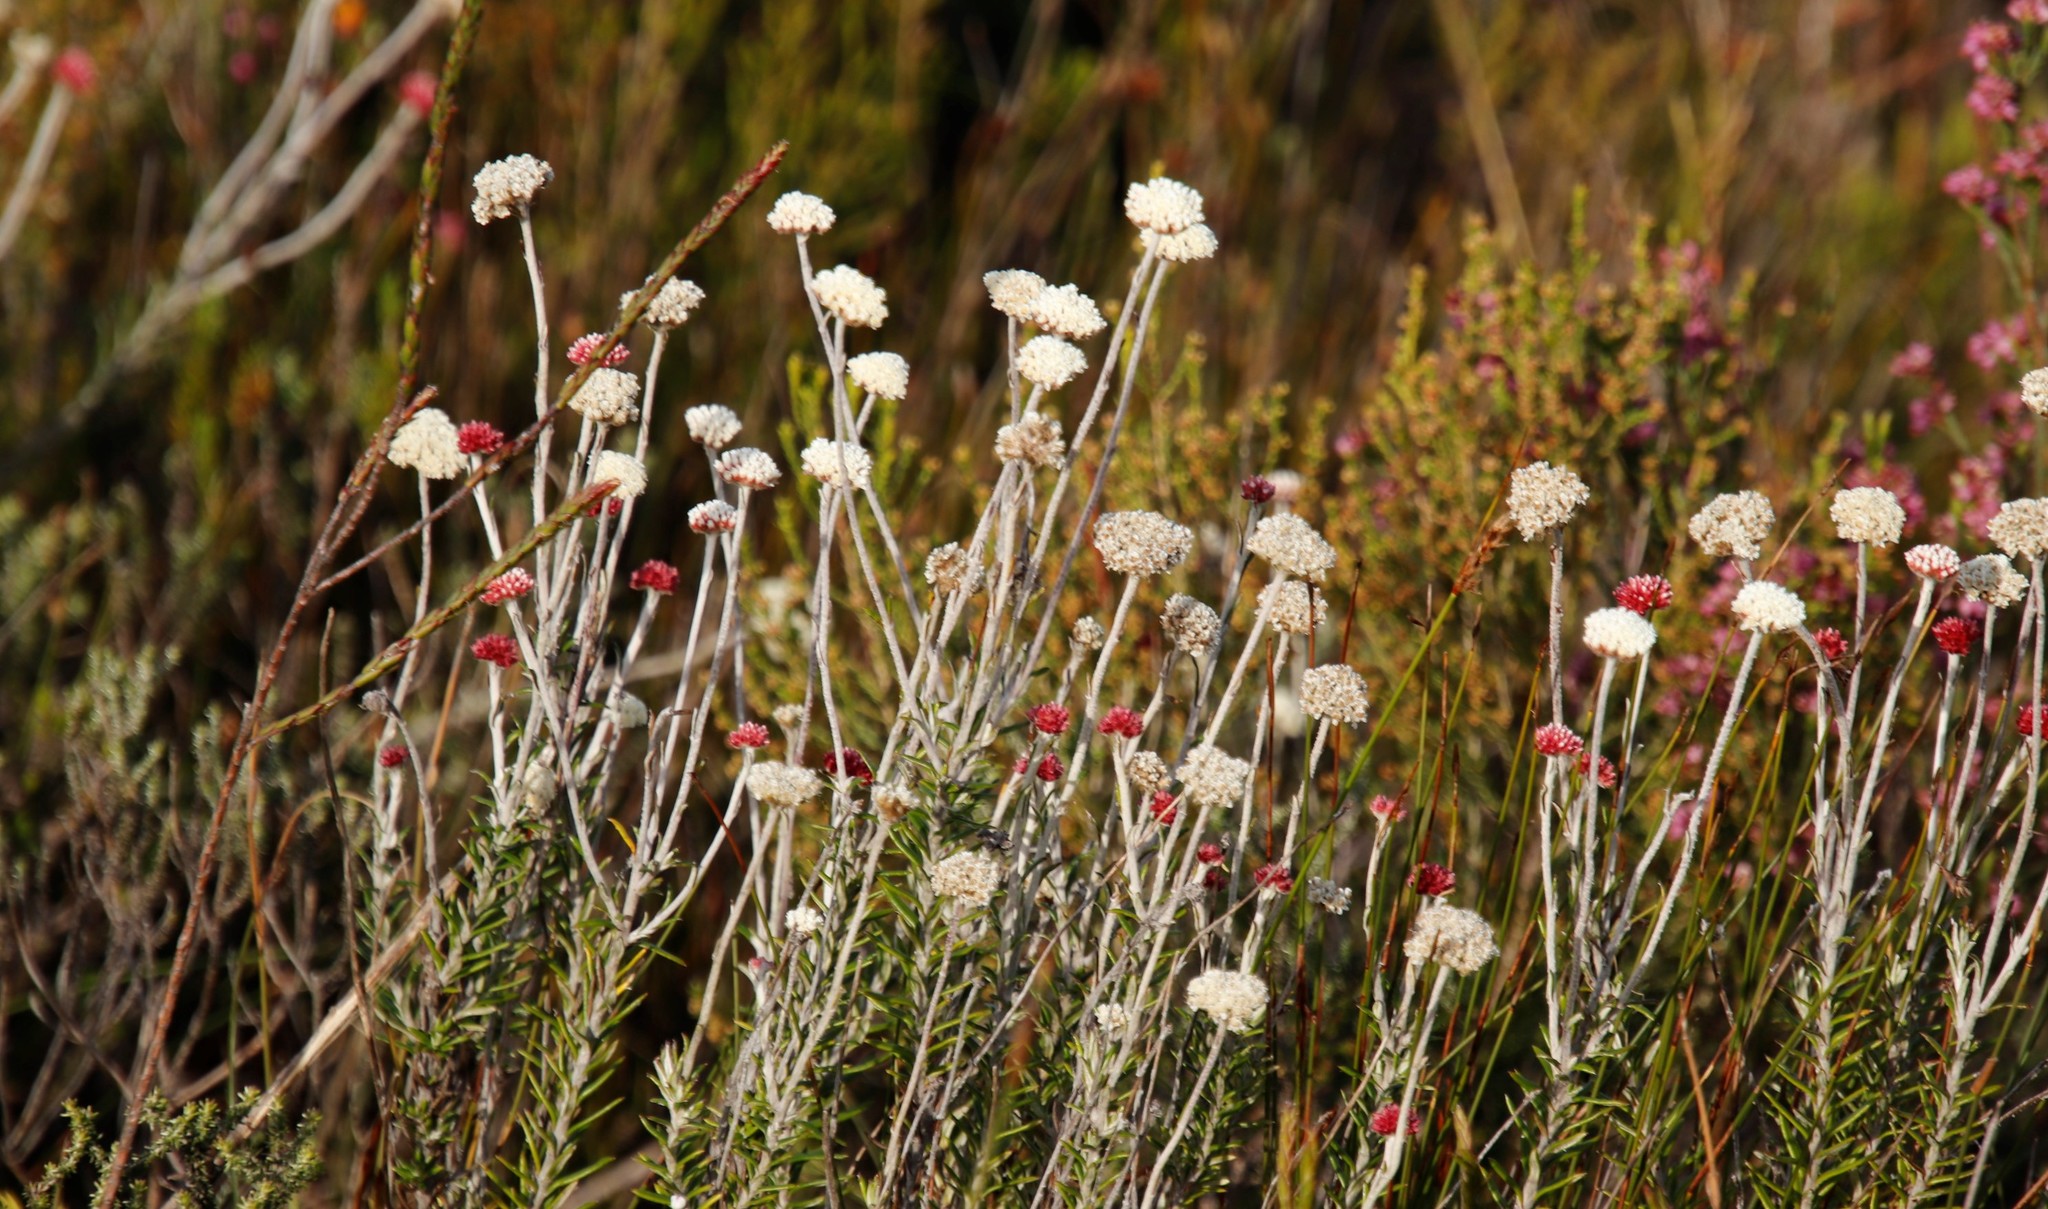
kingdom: Plantae
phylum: Tracheophyta
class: Magnoliopsida
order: Asterales
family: Asteraceae
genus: Anaxeton
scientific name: Anaxeton laeve
